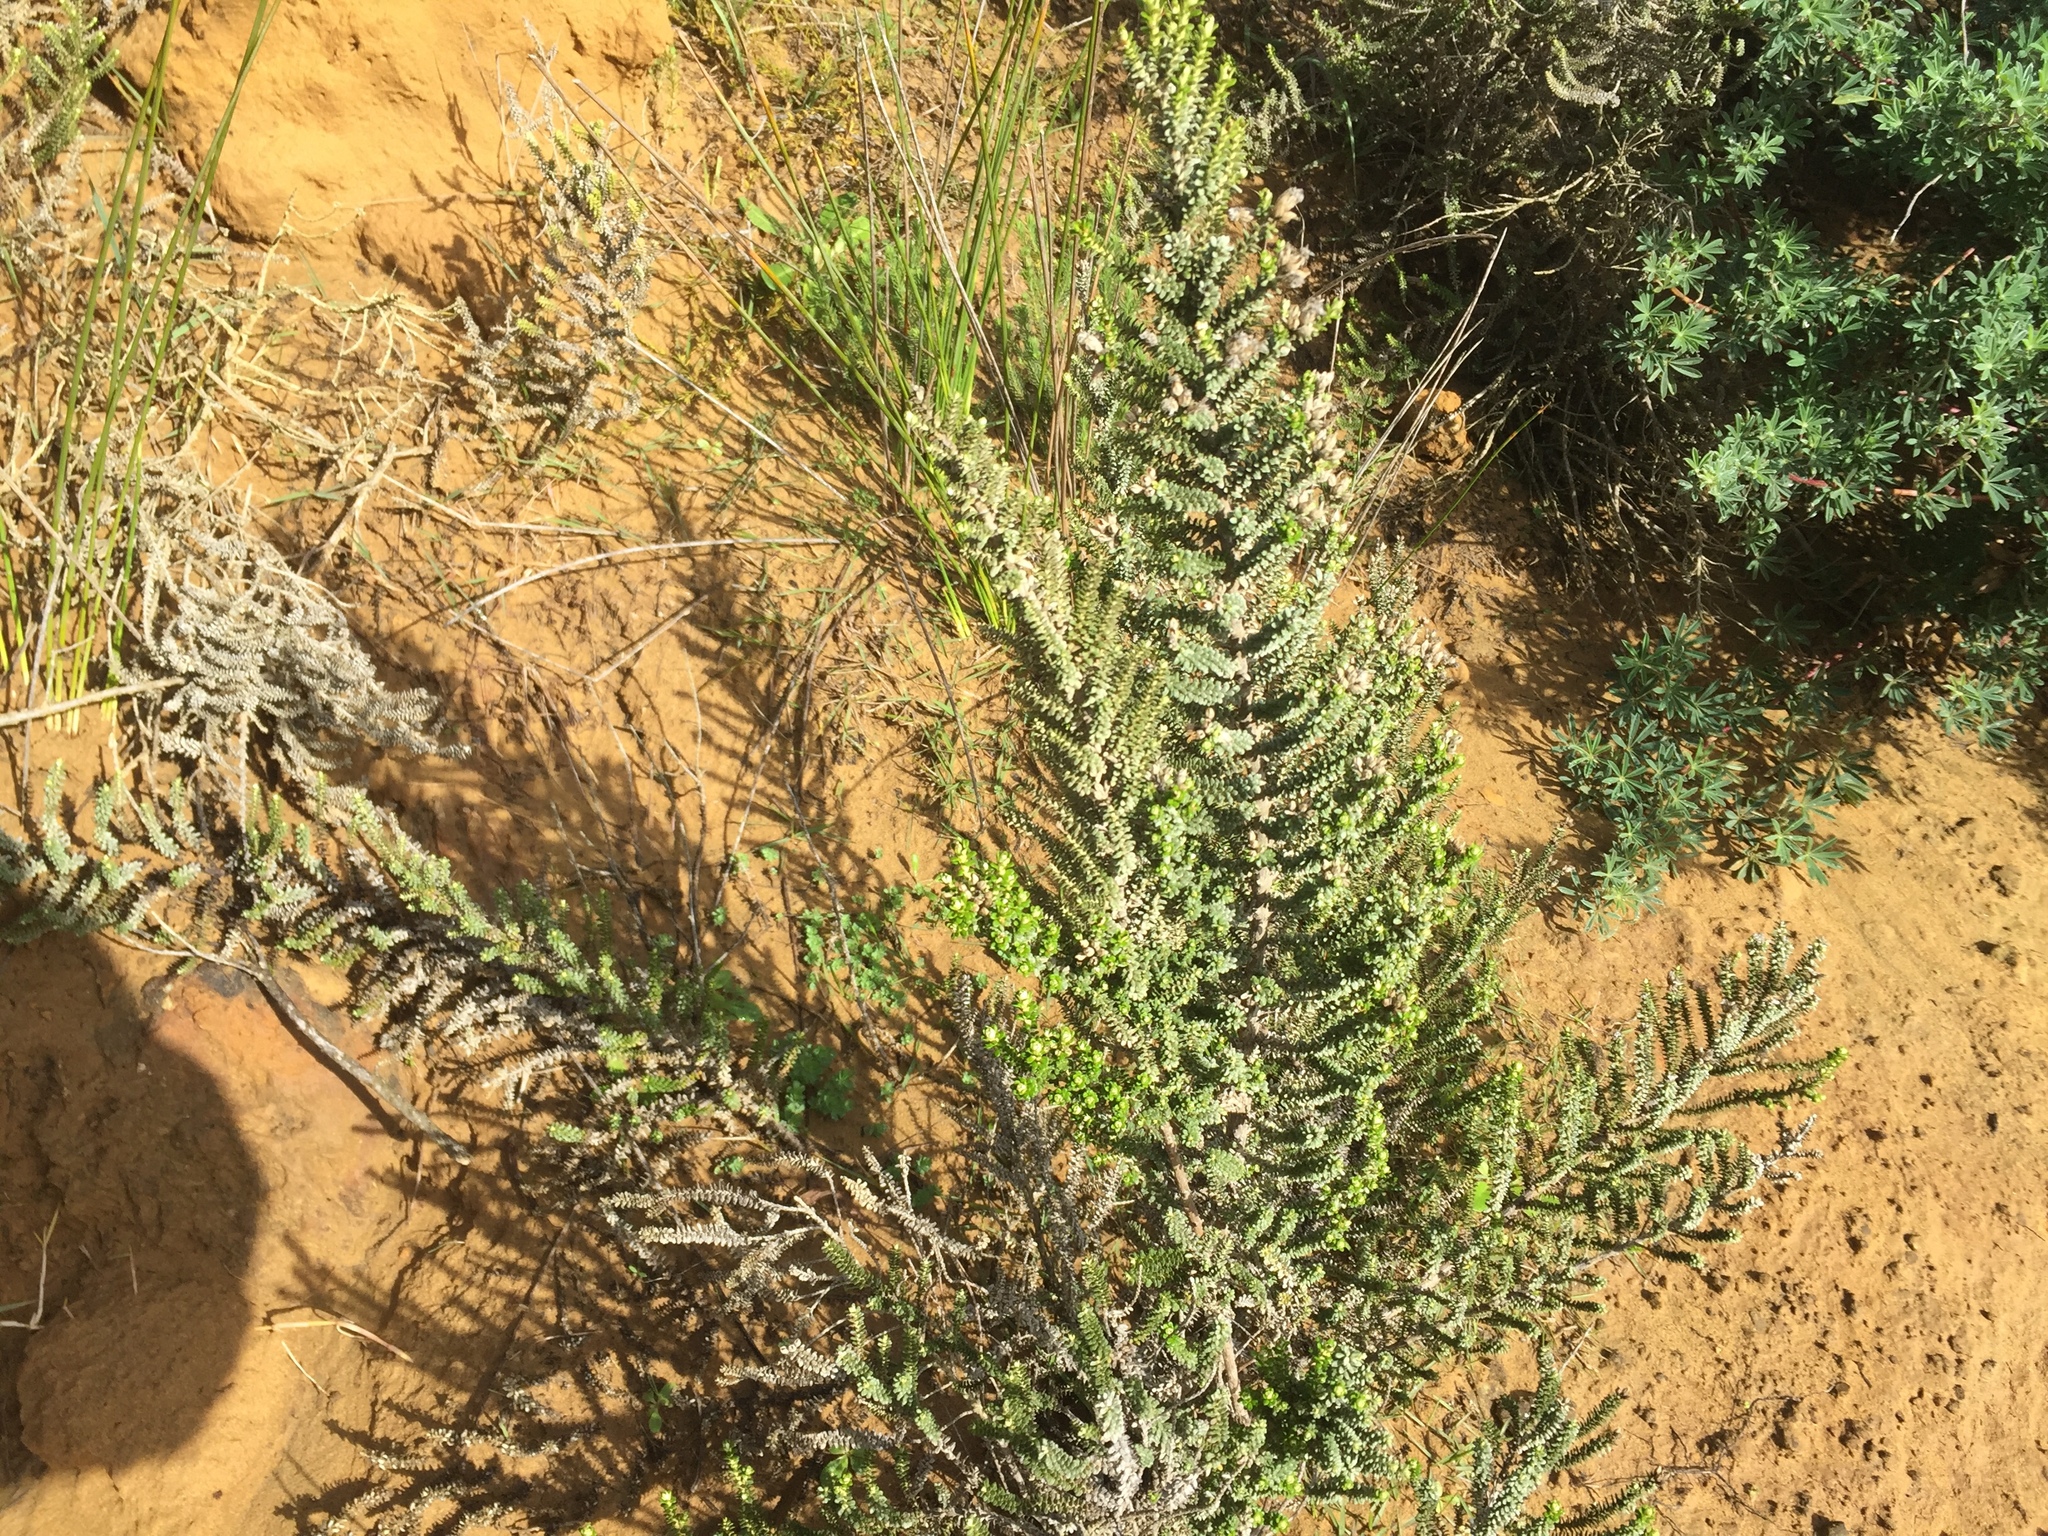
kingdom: Plantae
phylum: Tracheophyta
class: Magnoliopsida
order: Asterales
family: Asteraceae
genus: Ozothamnus
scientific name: Ozothamnus leptophyllus
